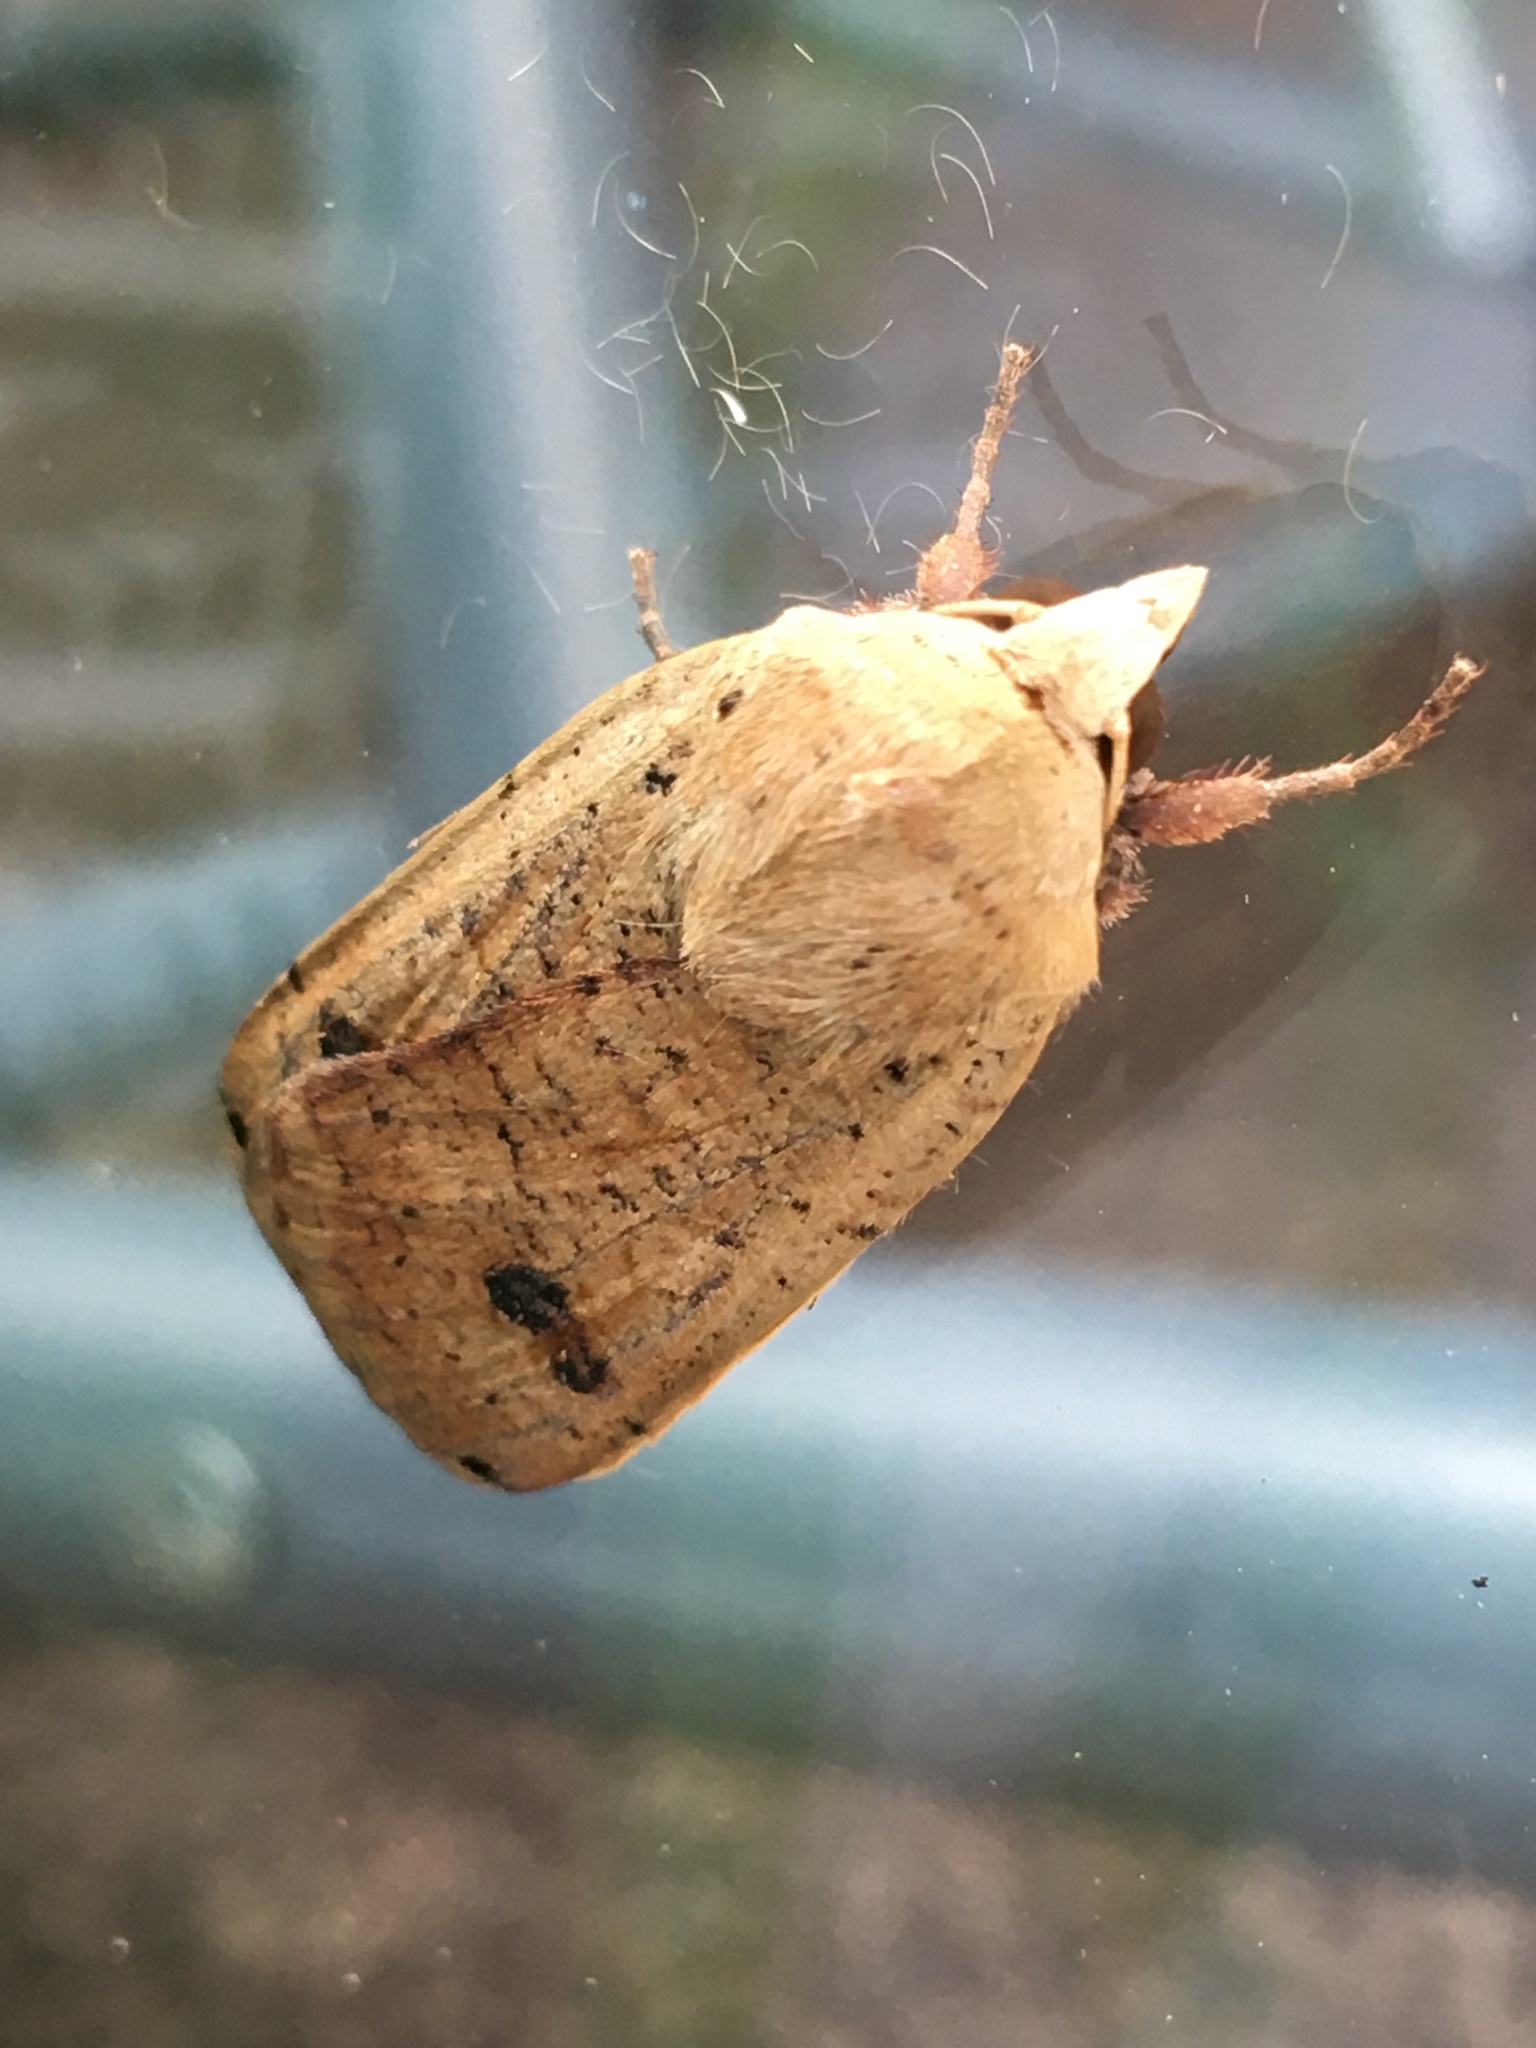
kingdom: Animalia
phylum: Arthropoda
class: Insecta
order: Lepidoptera
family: Noctuidae
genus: Noctua
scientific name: Noctua pronuba
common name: Large yellow underwing
